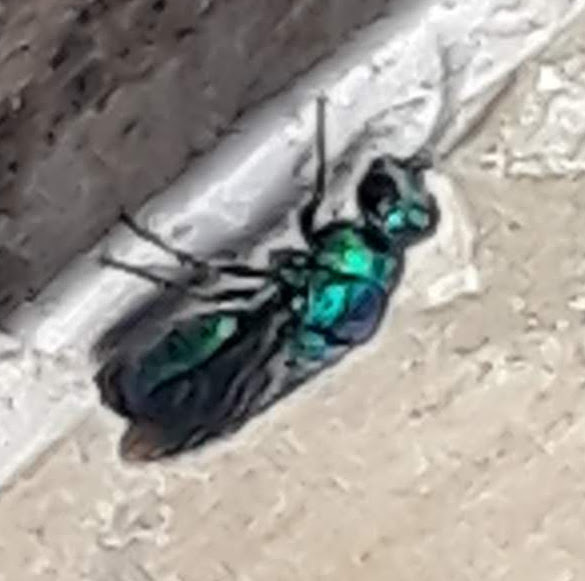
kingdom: Animalia
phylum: Arthropoda
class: Insecta
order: Hymenoptera
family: Chrysididae
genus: Chrysis
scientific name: Chrysis angolensis
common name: Cuckoo wasp
